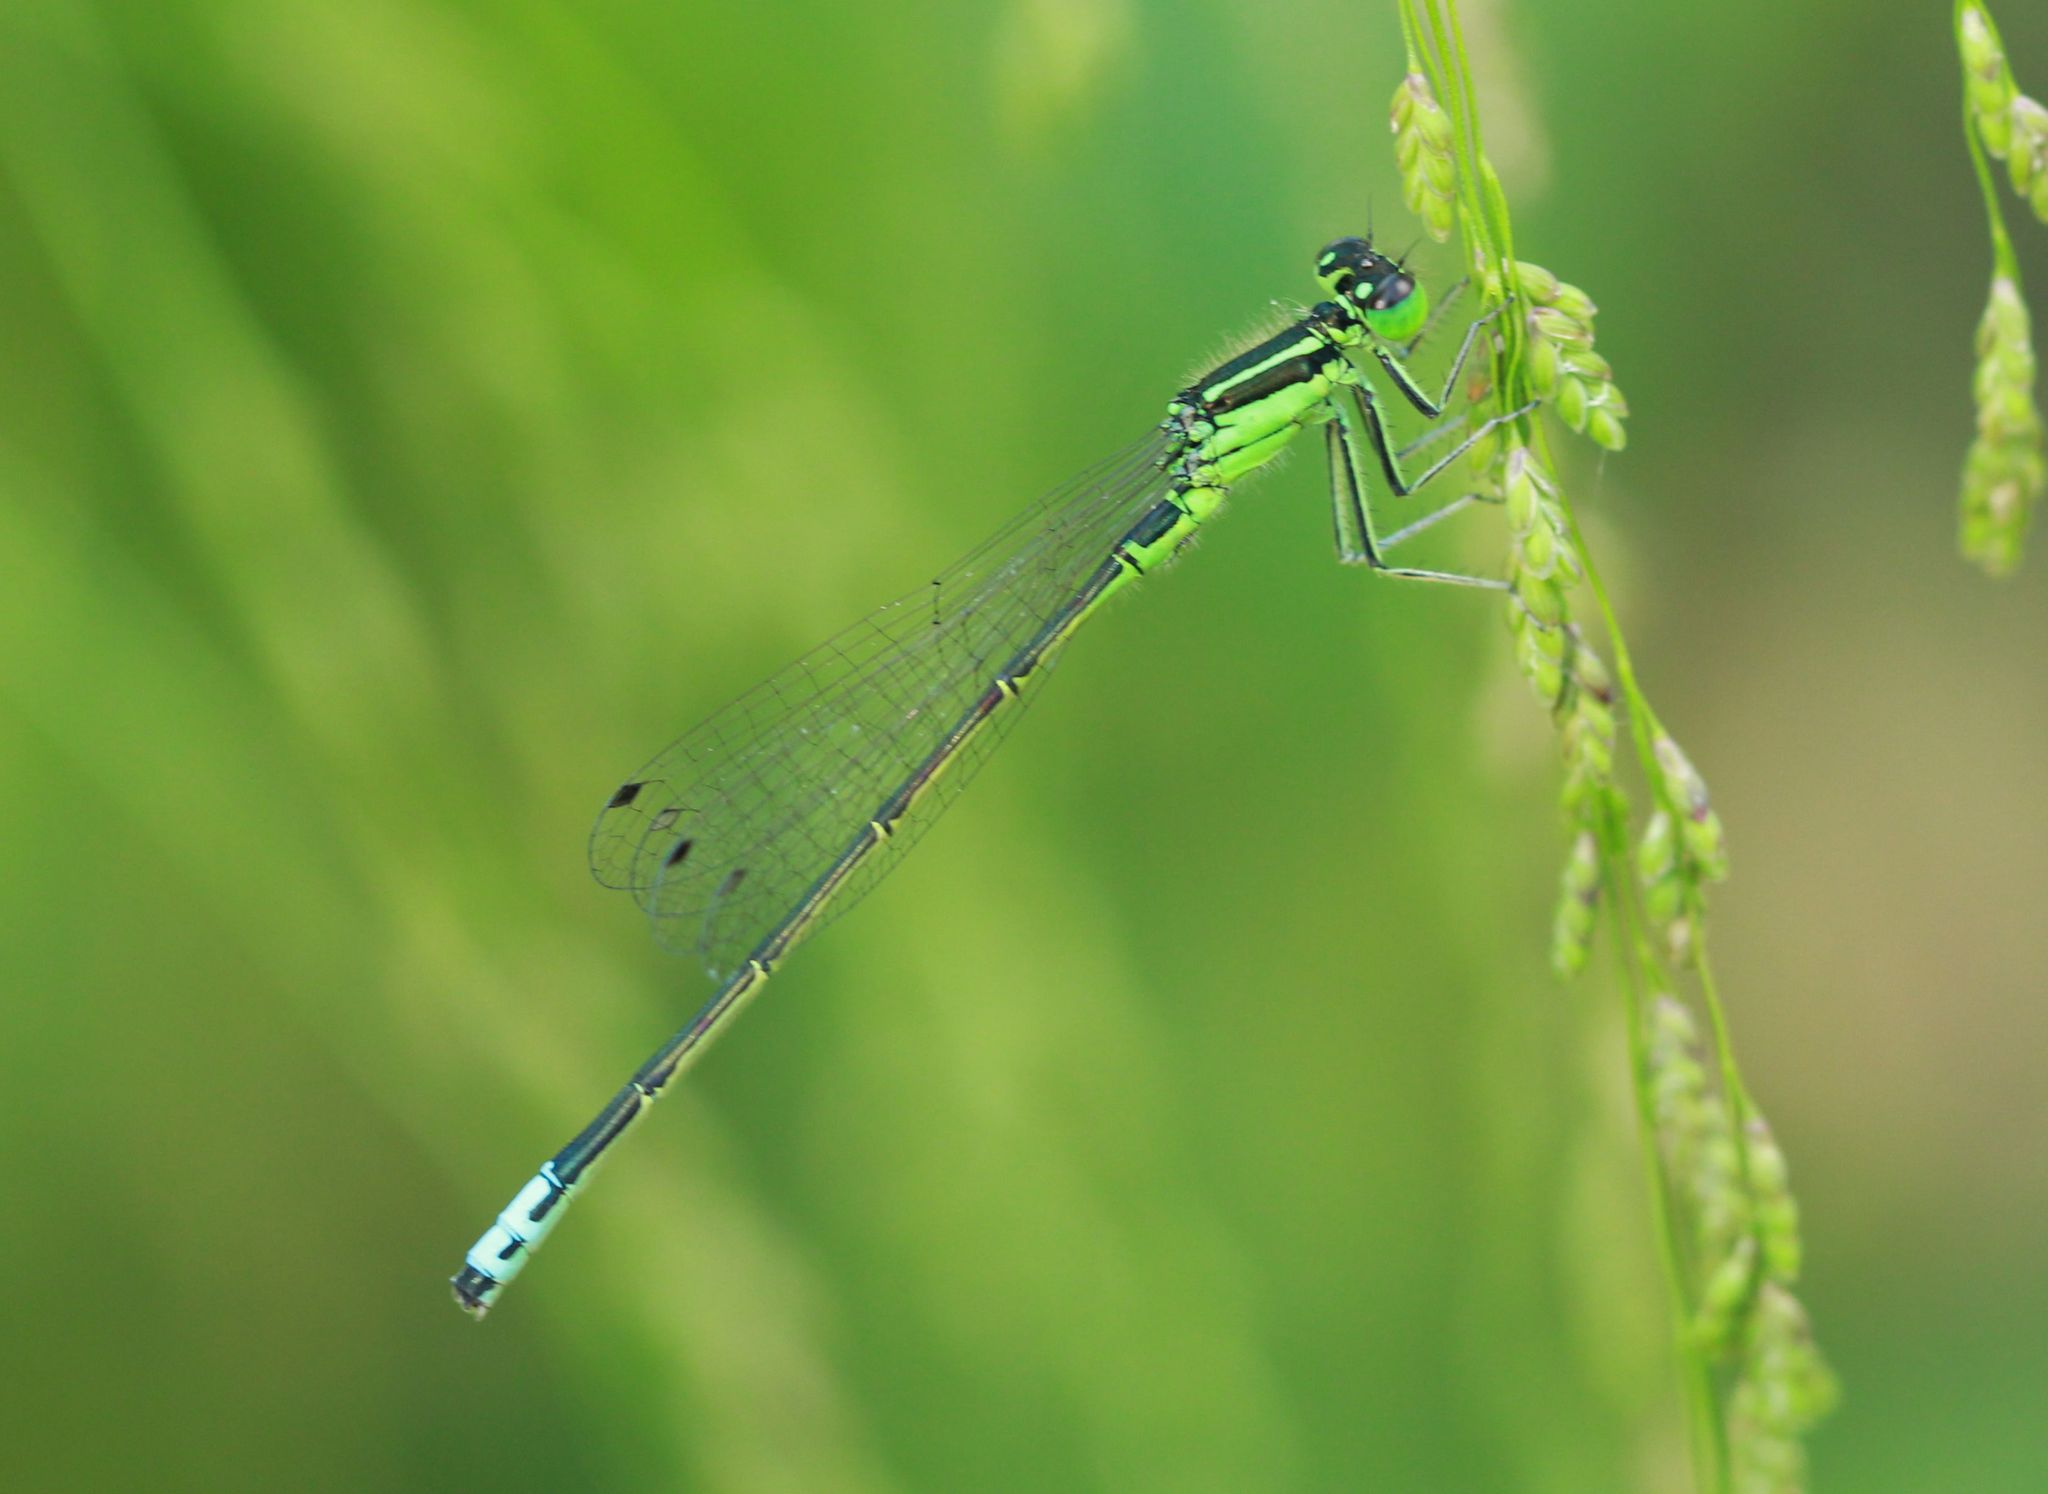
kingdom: Animalia
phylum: Arthropoda
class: Insecta
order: Odonata
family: Coenagrionidae
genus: Ischnura
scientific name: Ischnura verticalis
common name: Eastern forktail
